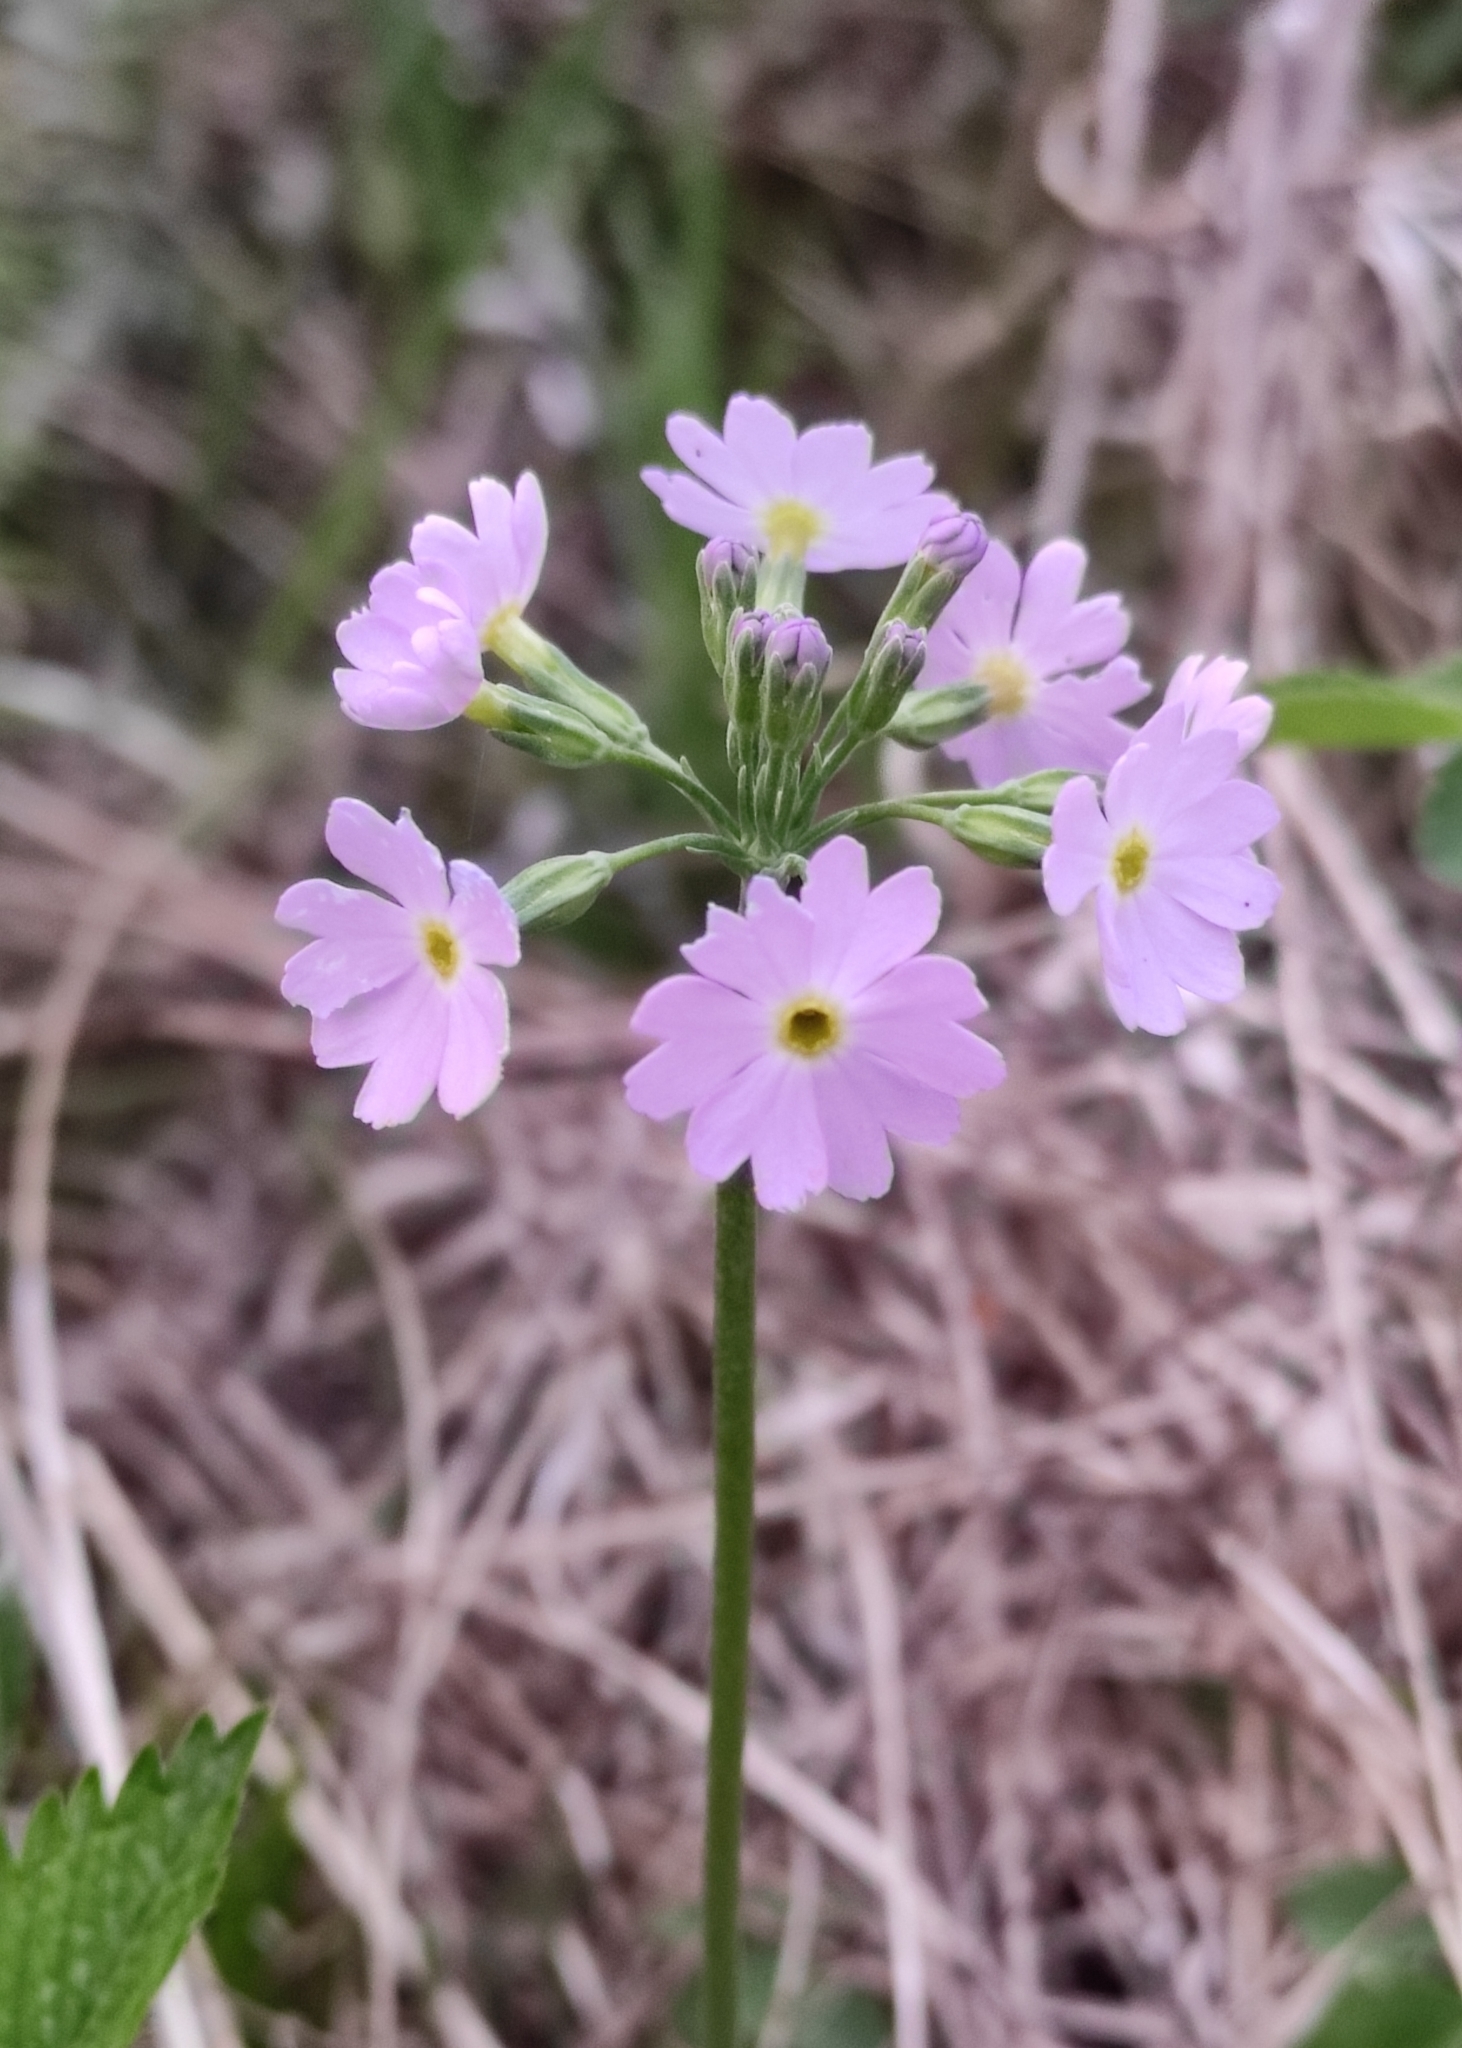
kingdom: Plantae
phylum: Tracheophyta
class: Magnoliopsida
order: Ericales
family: Primulaceae
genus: Primula
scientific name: Primula farinosa
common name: Bird's-eye primrose
